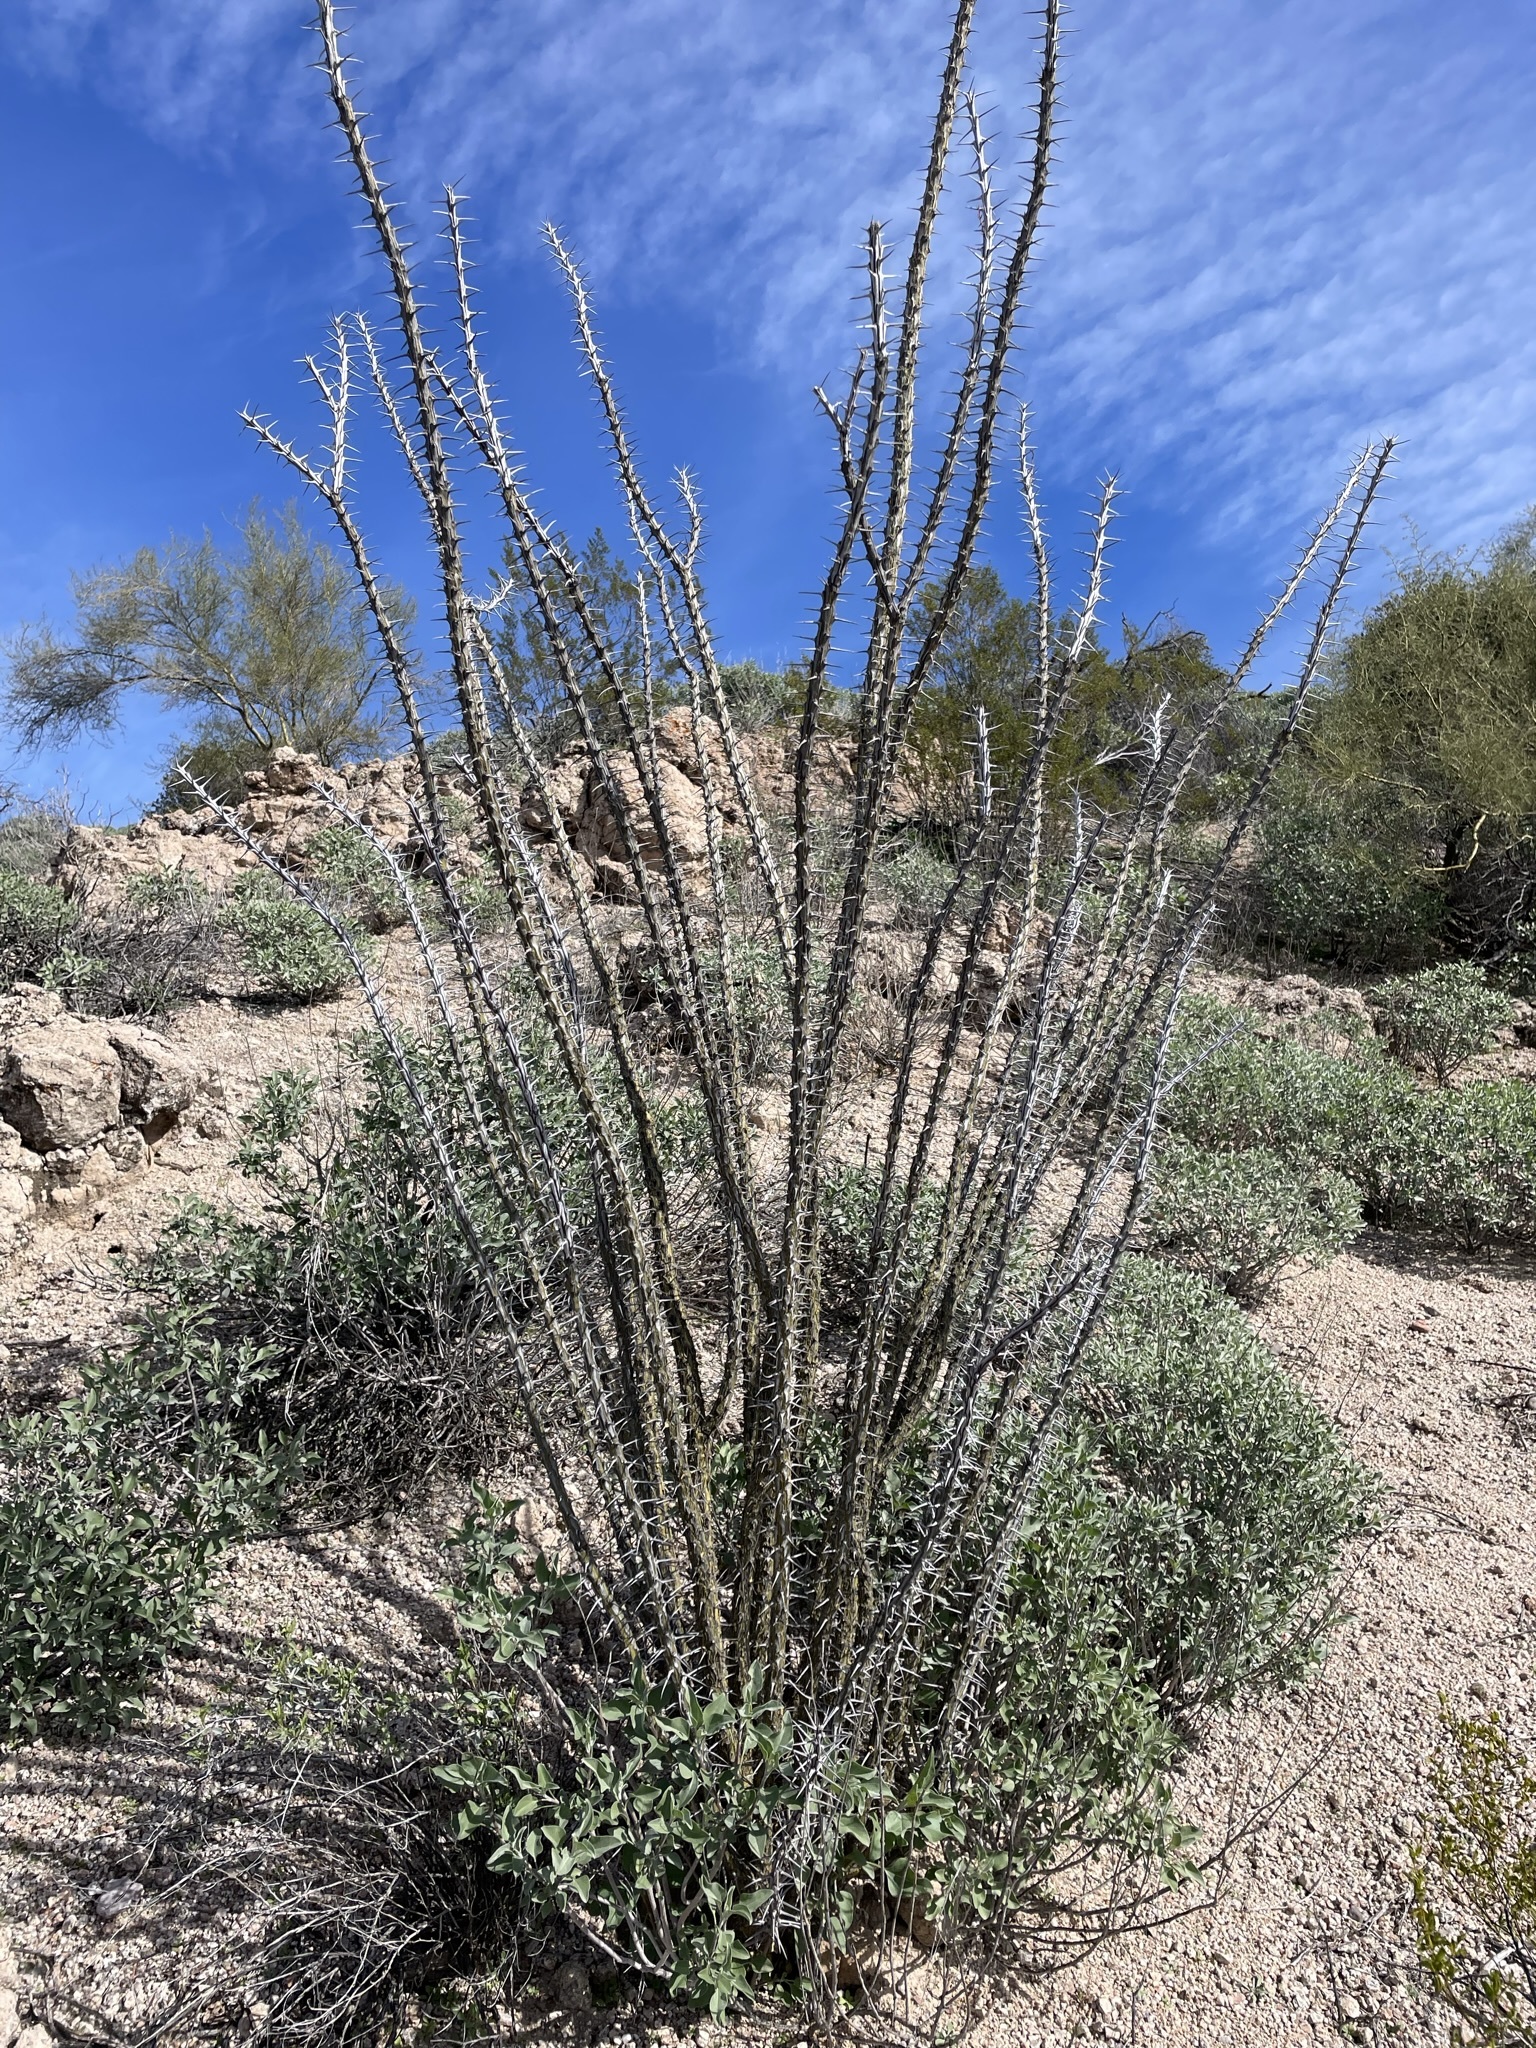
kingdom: Plantae
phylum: Tracheophyta
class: Magnoliopsida
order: Ericales
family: Fouquieriaceae
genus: Fouquieria
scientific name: Fouquieria splendens
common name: Vine-cactus
